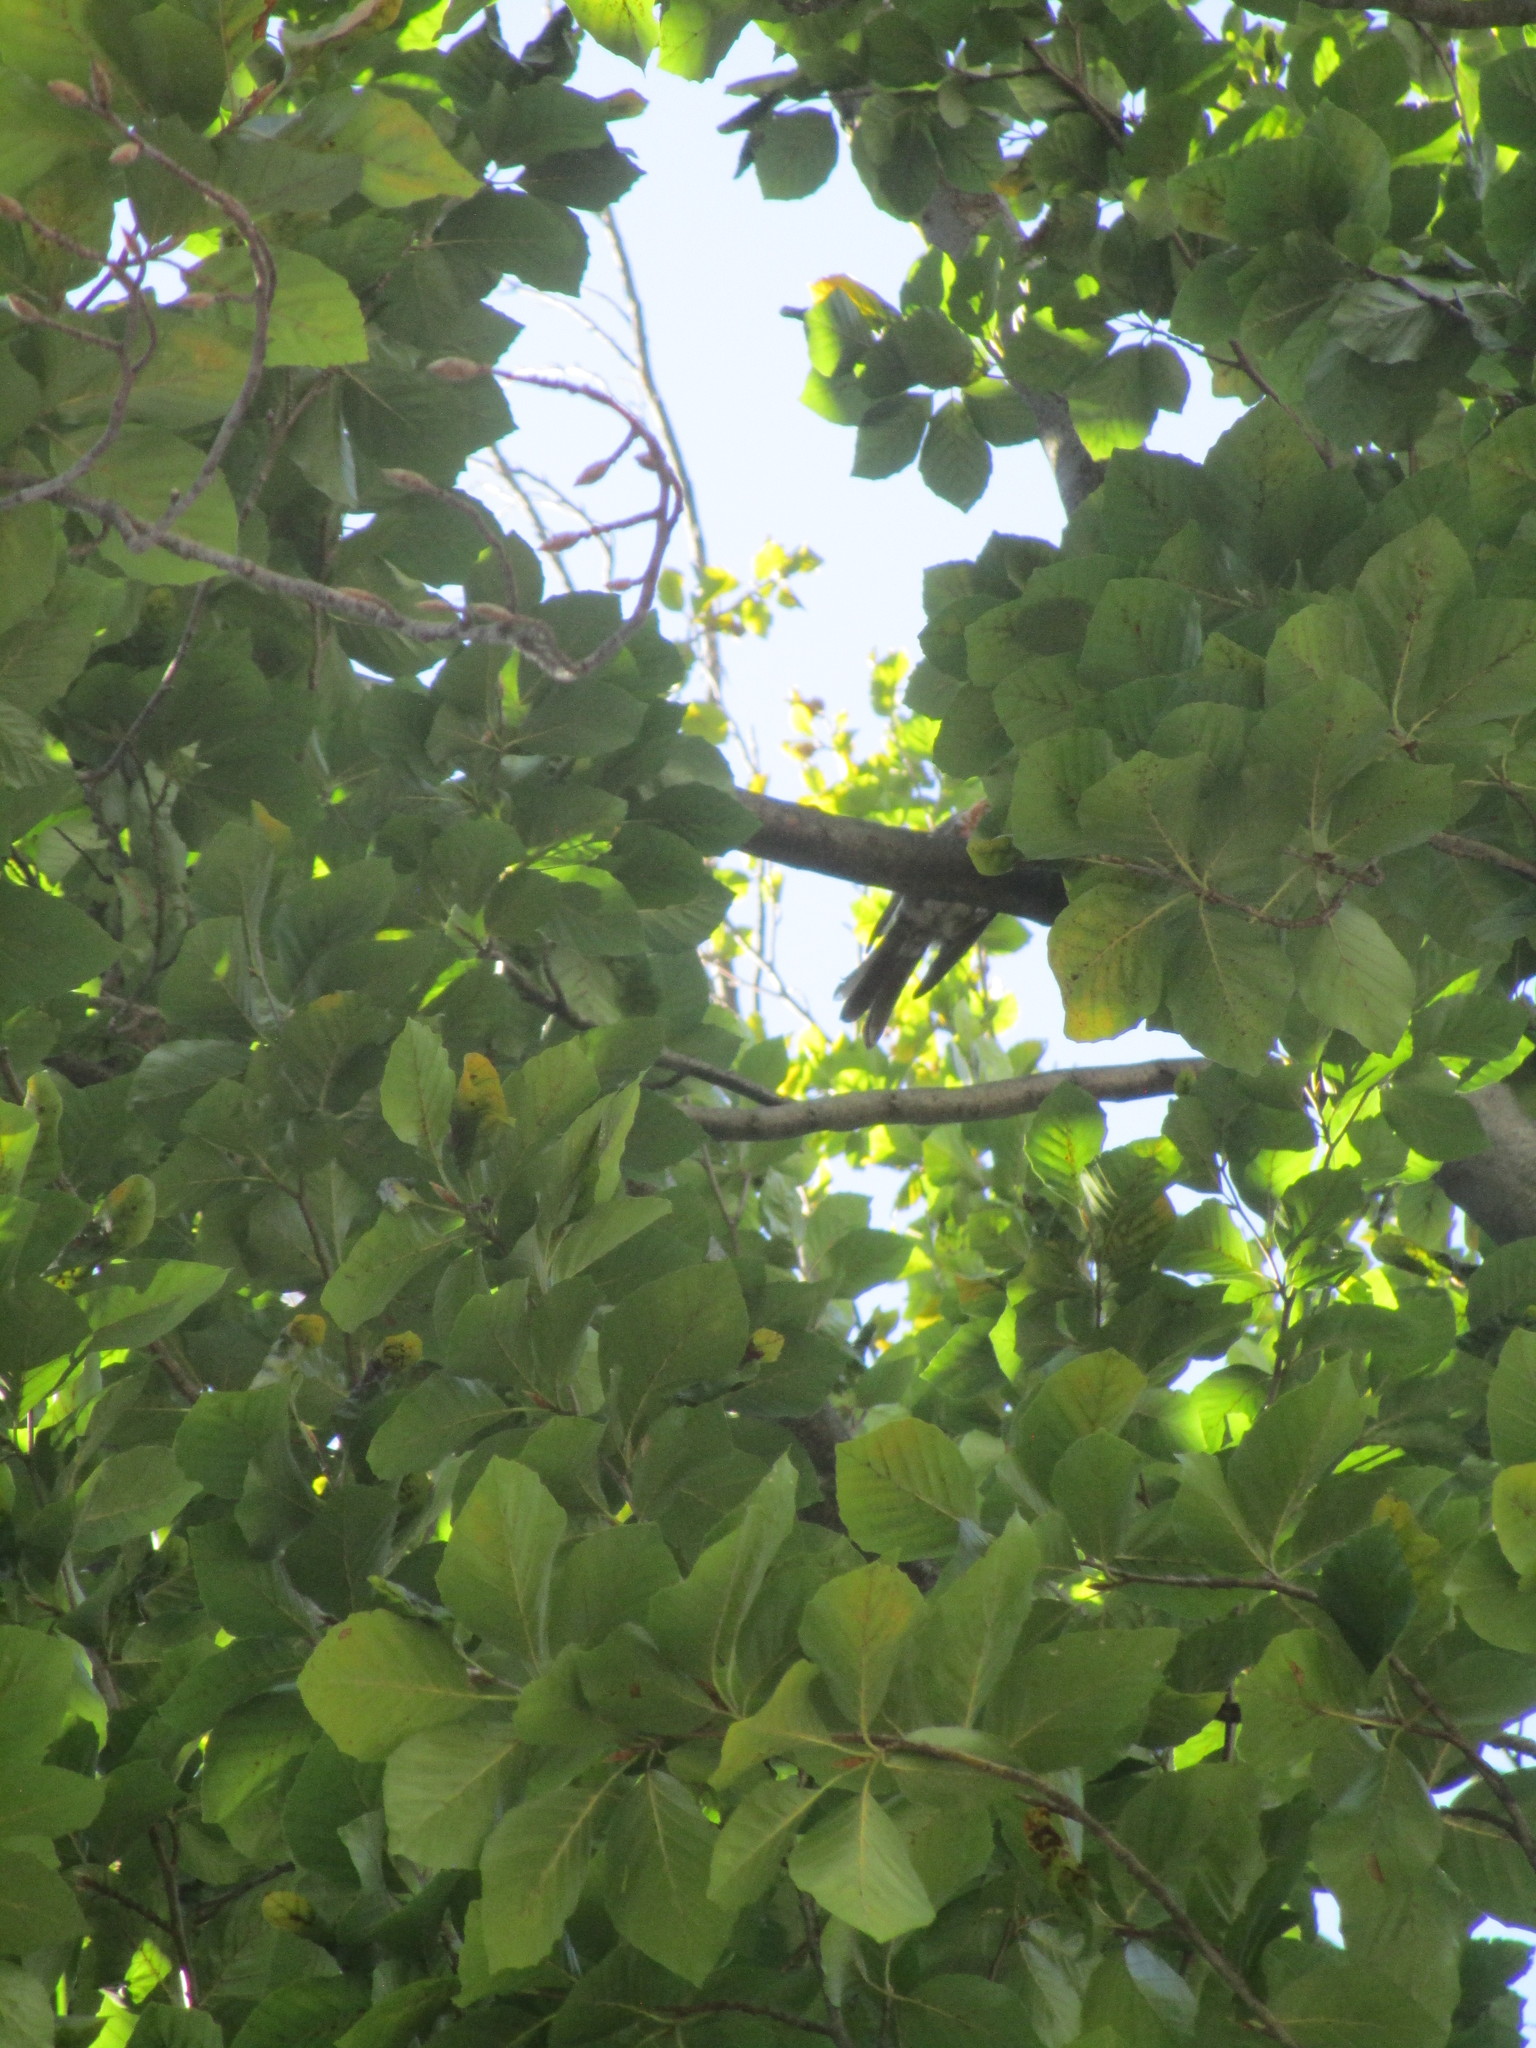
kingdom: Animalia
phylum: Chordata
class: Aves
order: Passeriformes
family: Cardinalidae
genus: Cardinalis
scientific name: Cardinalis cardinalis
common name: Northern cardinal
